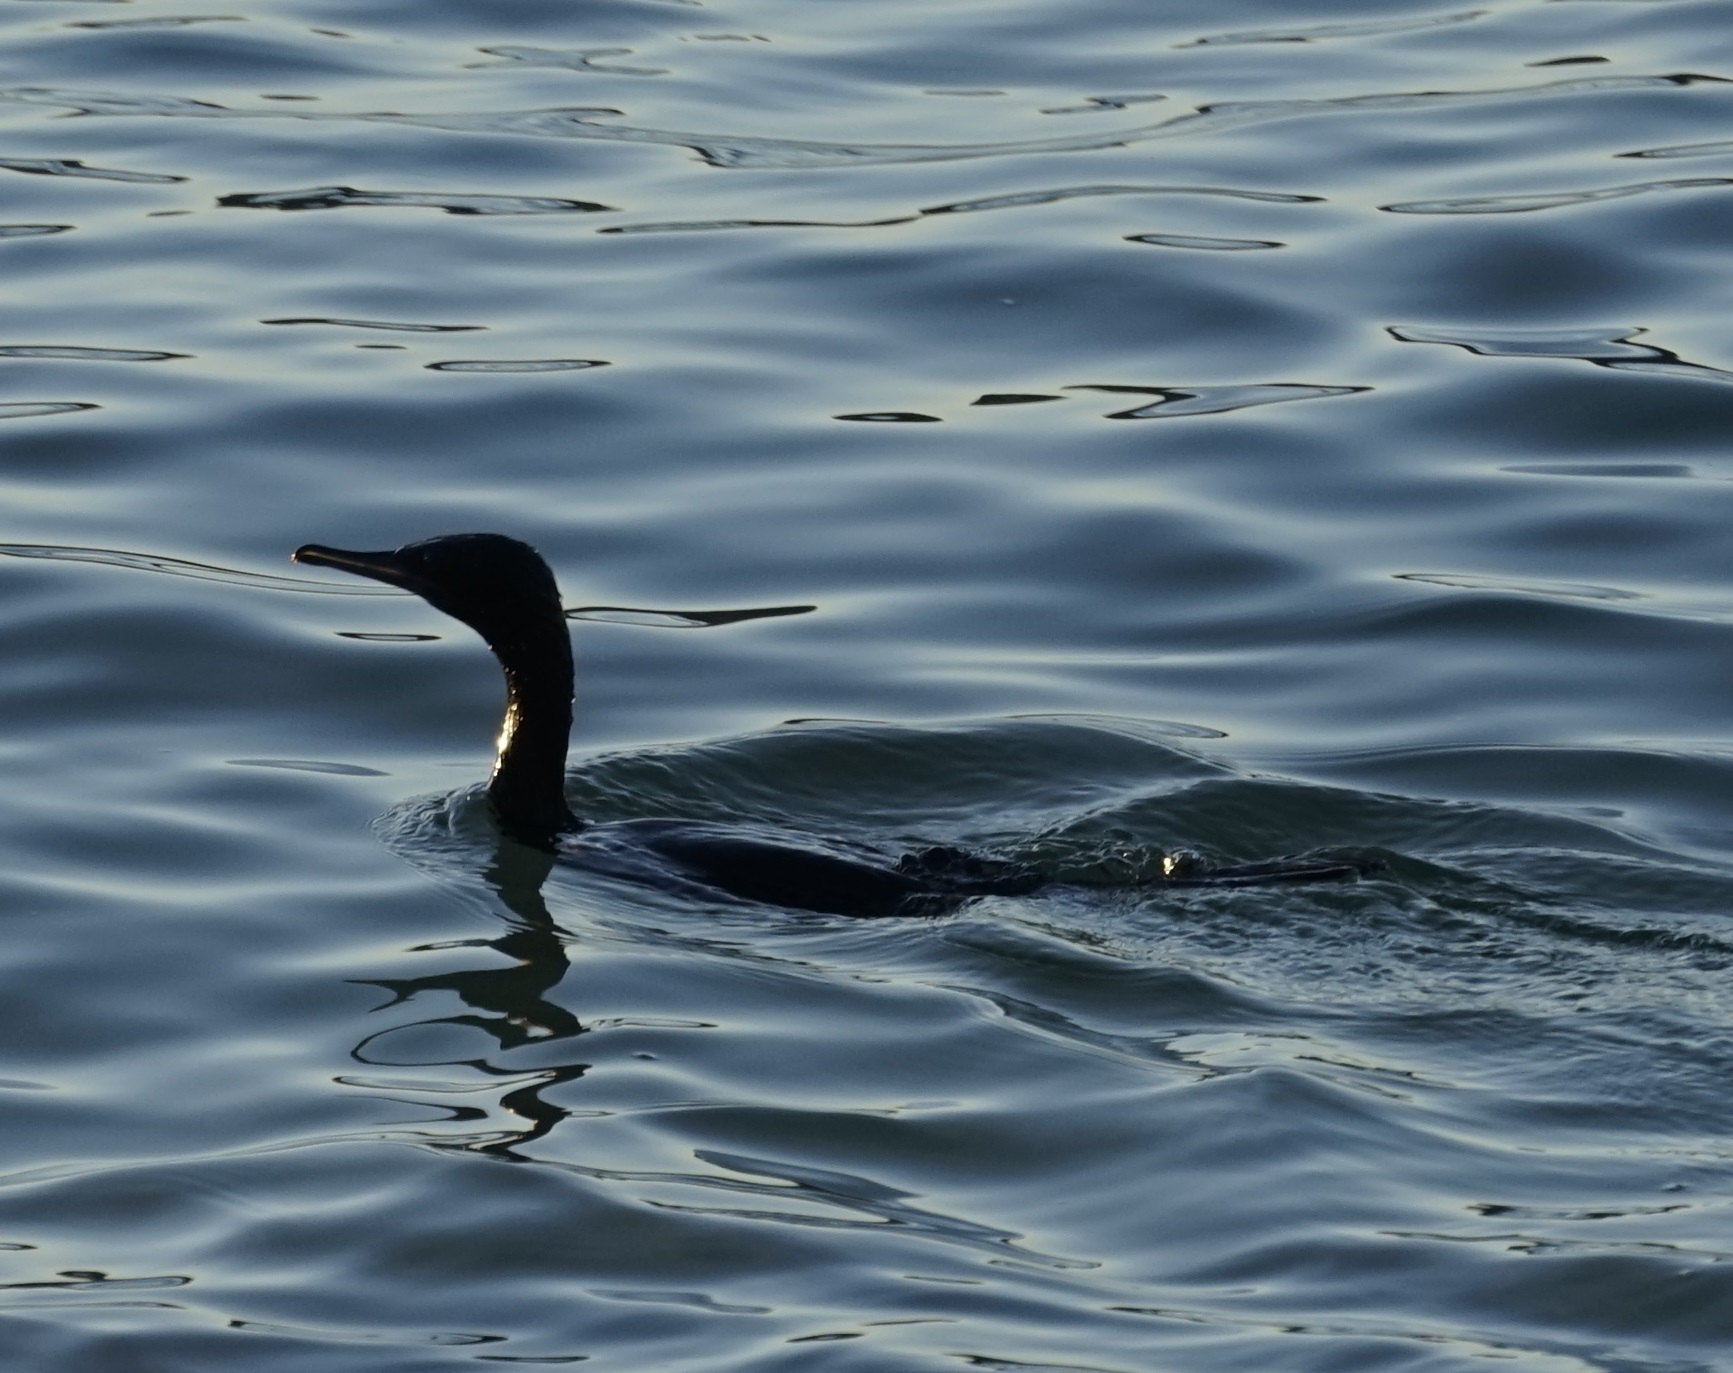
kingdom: Animalia
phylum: Chordata
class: Aves
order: Suliformes
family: Phalacrocoracidae
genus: Phalacrocorax
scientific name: Phalacrocorax sulcirostris
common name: Little black cormorant
